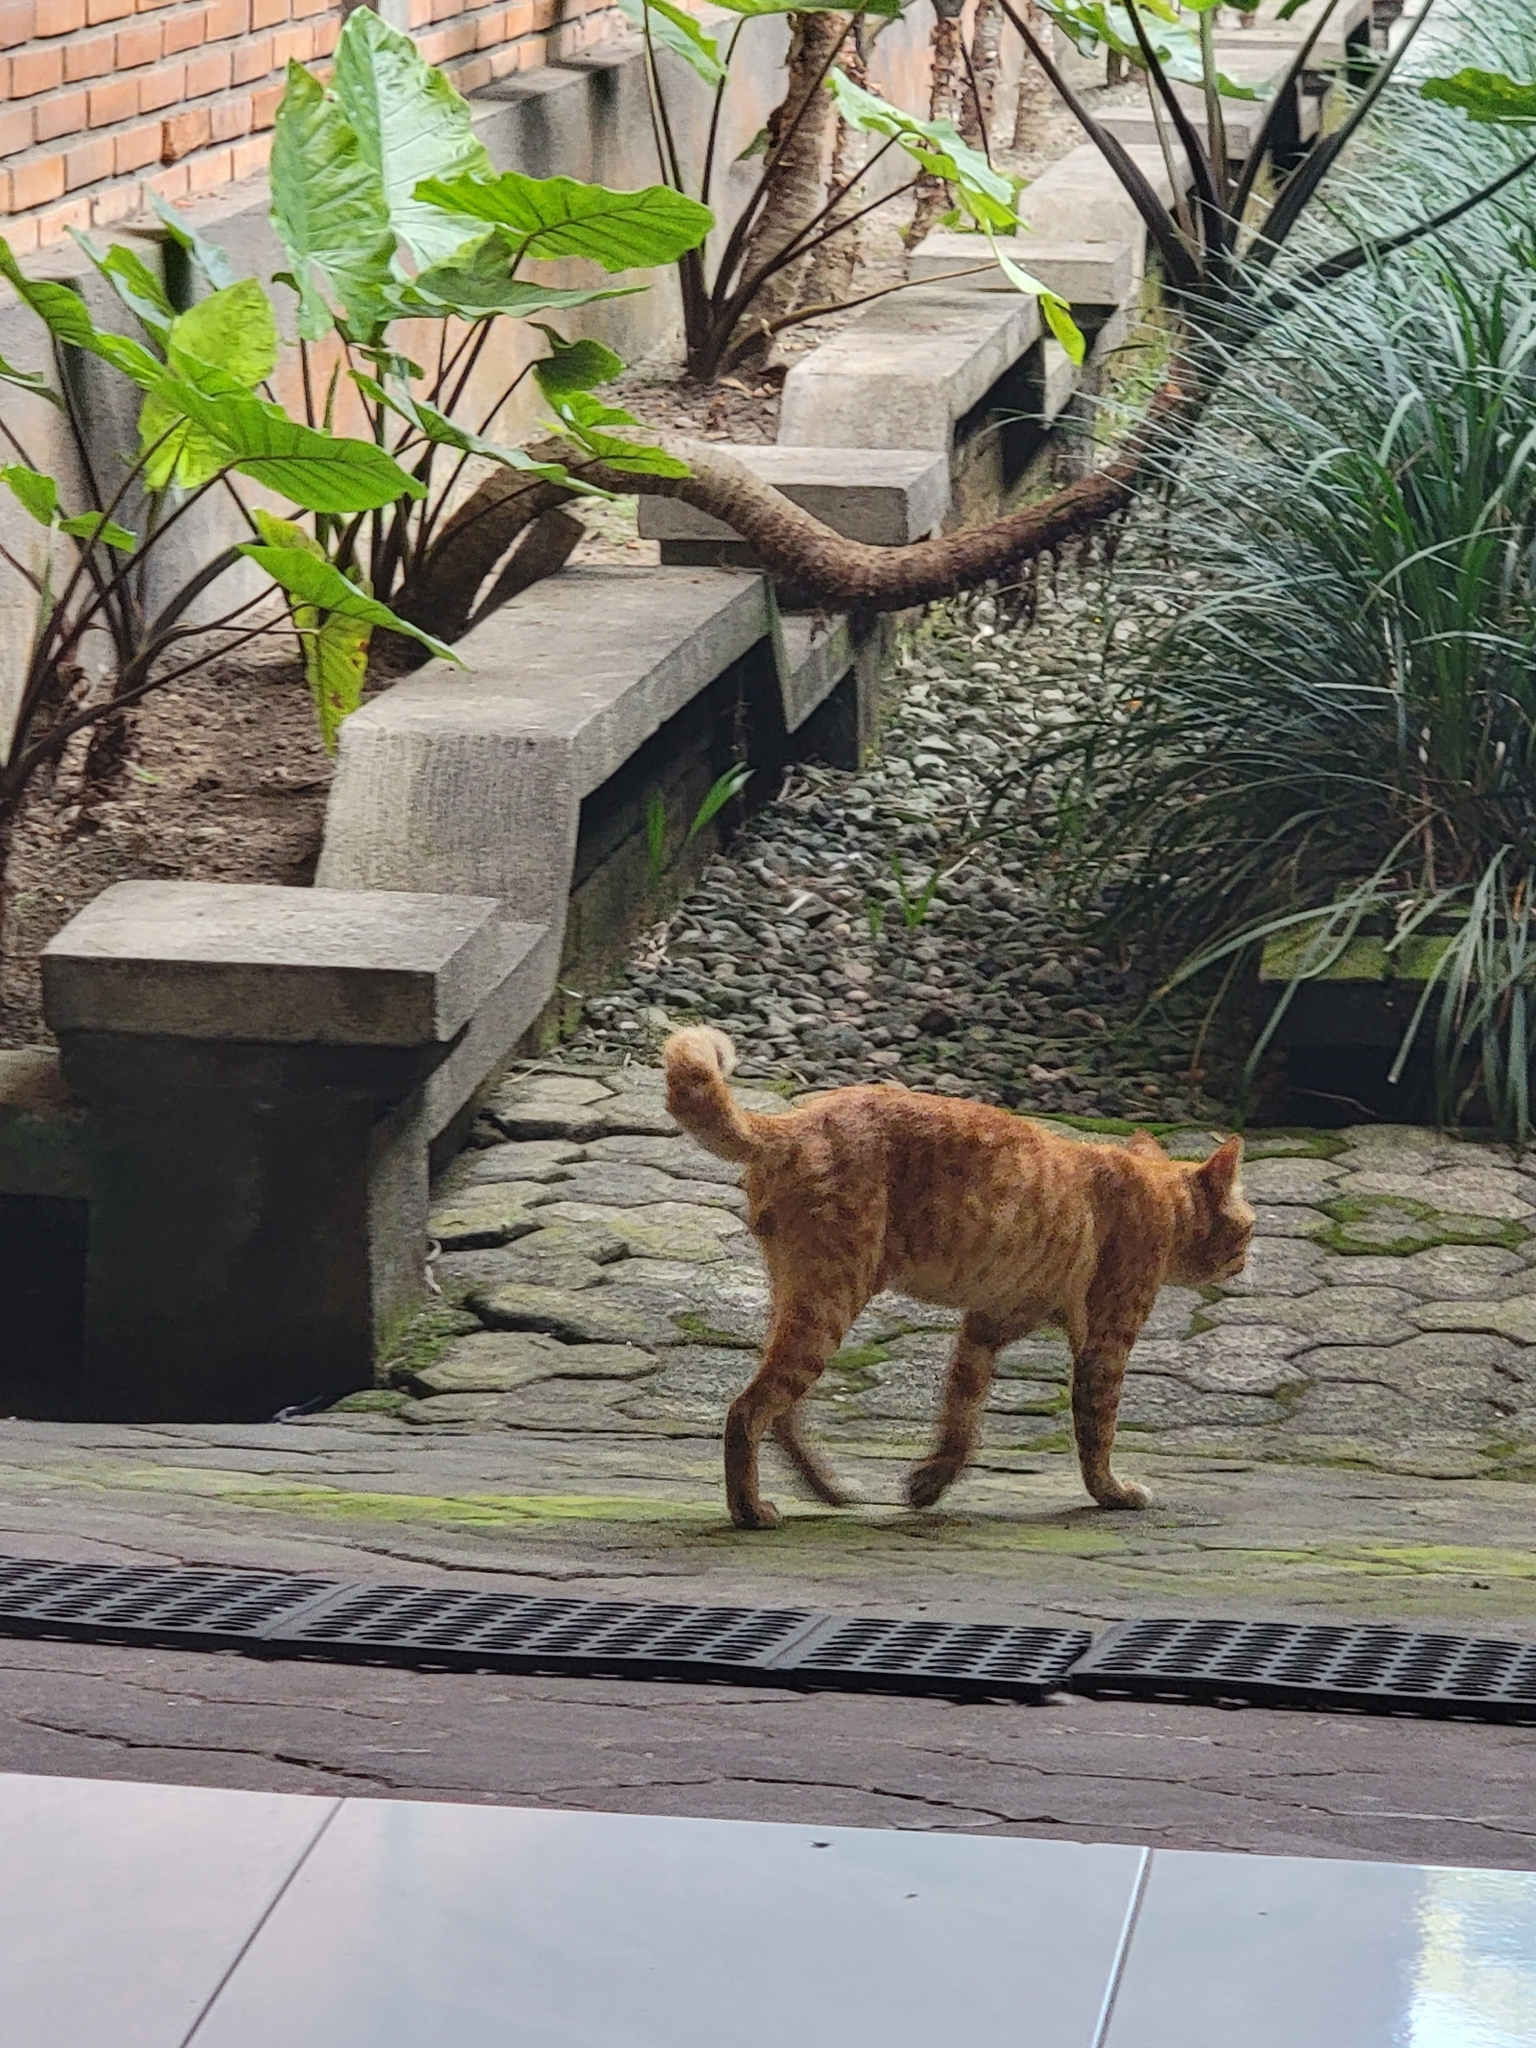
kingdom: Animalia
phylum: Chordata
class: Mammalia
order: Carnivora
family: Felidae
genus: Felis
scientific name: Felis catus
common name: Domestic cat
